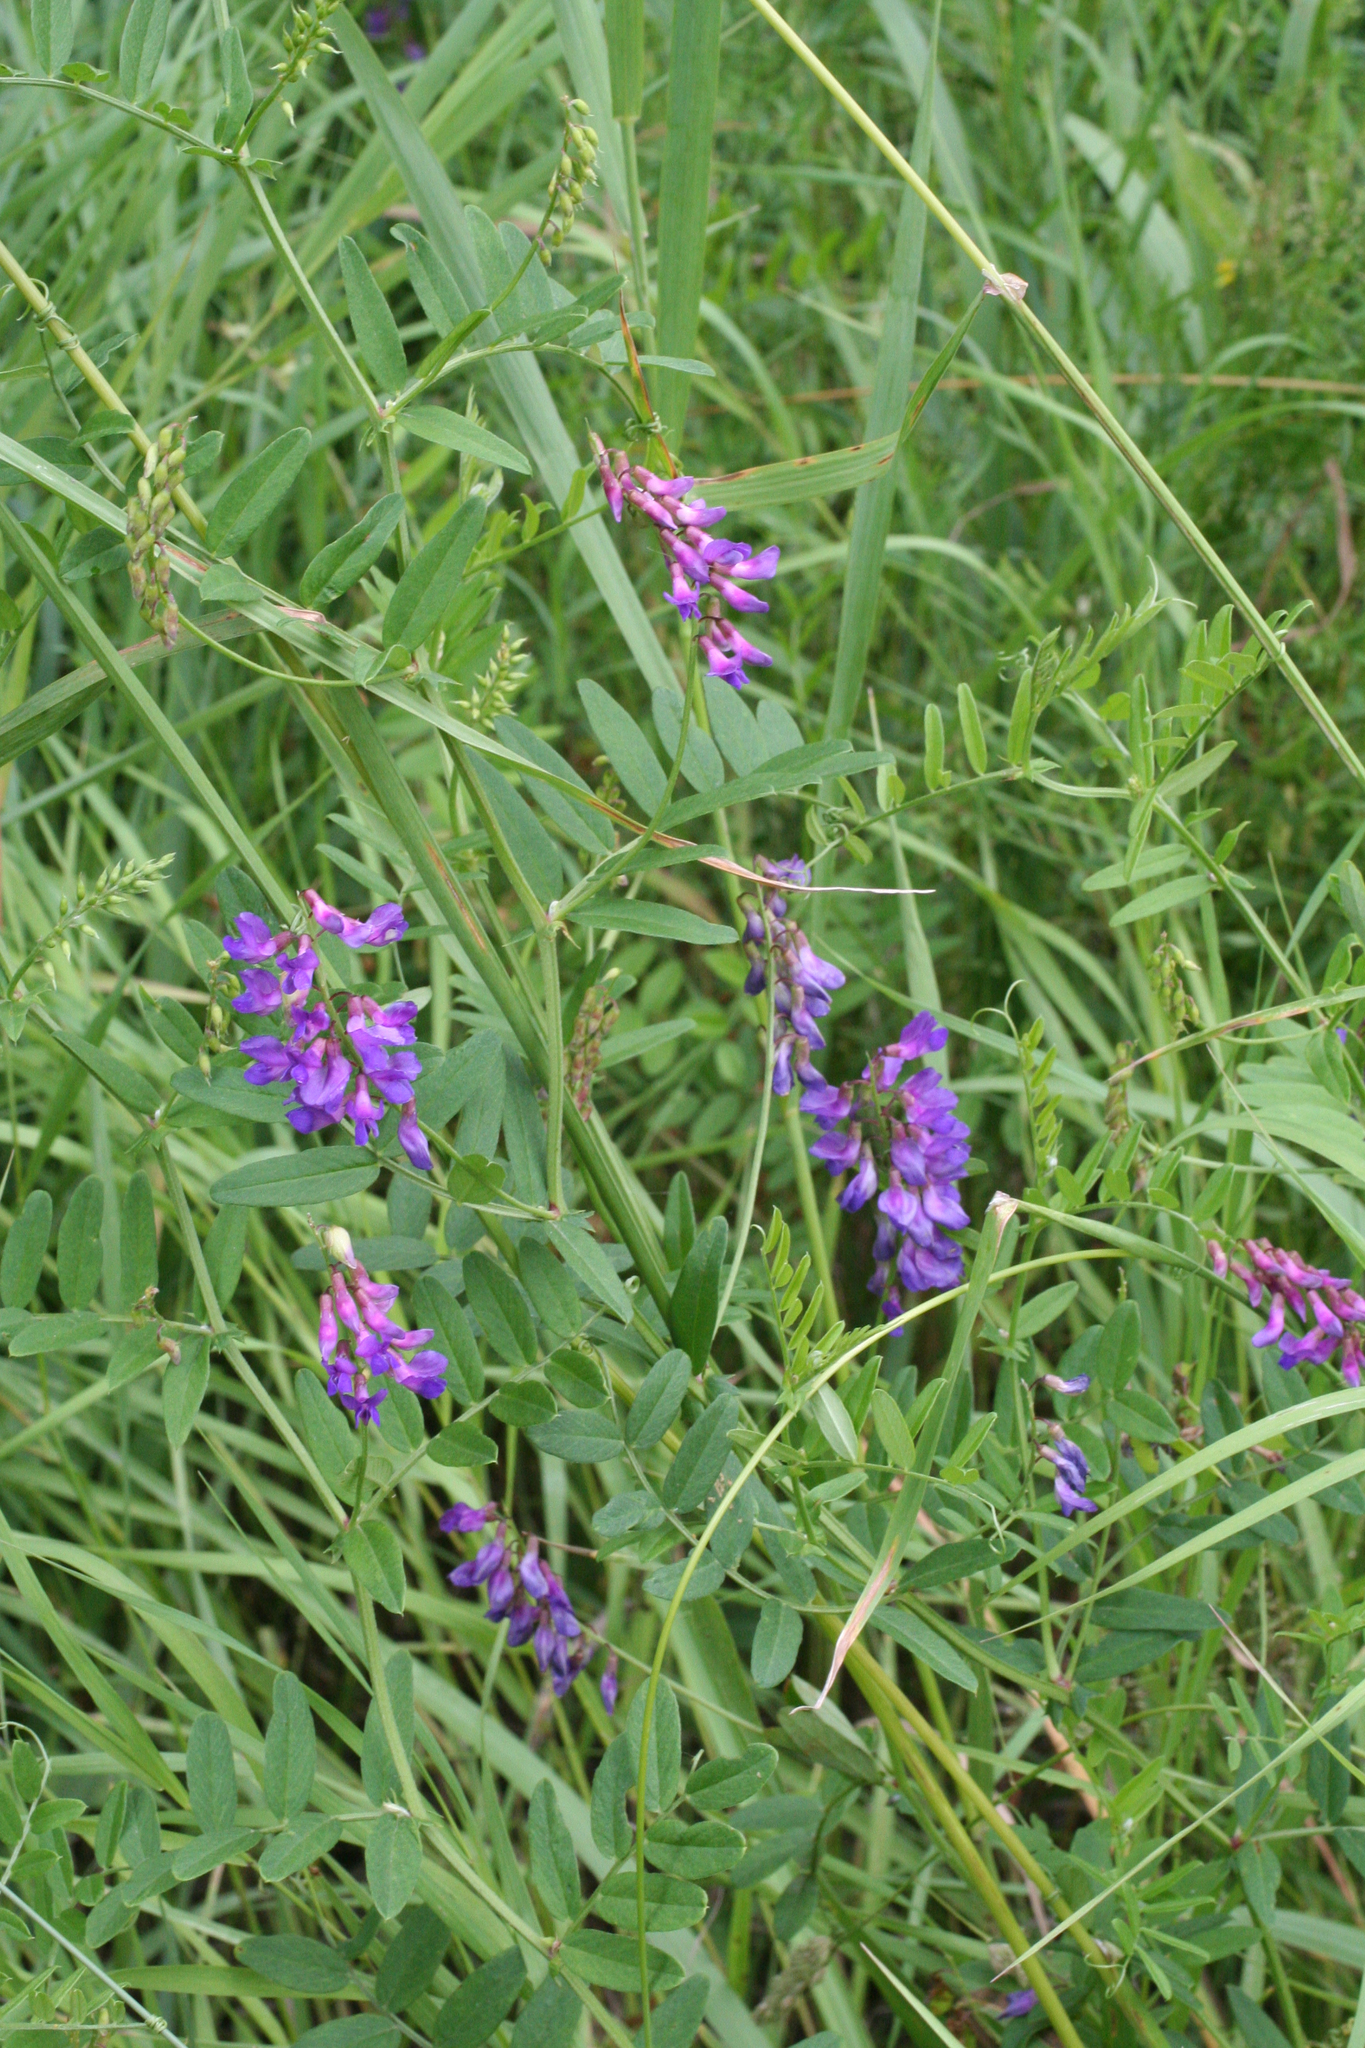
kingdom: Plantae
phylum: Tracheophyta
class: Magnoliopsida
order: Fabales
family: Fabaceae
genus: Vicia
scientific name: Vicia amoena
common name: Cheder ebs
